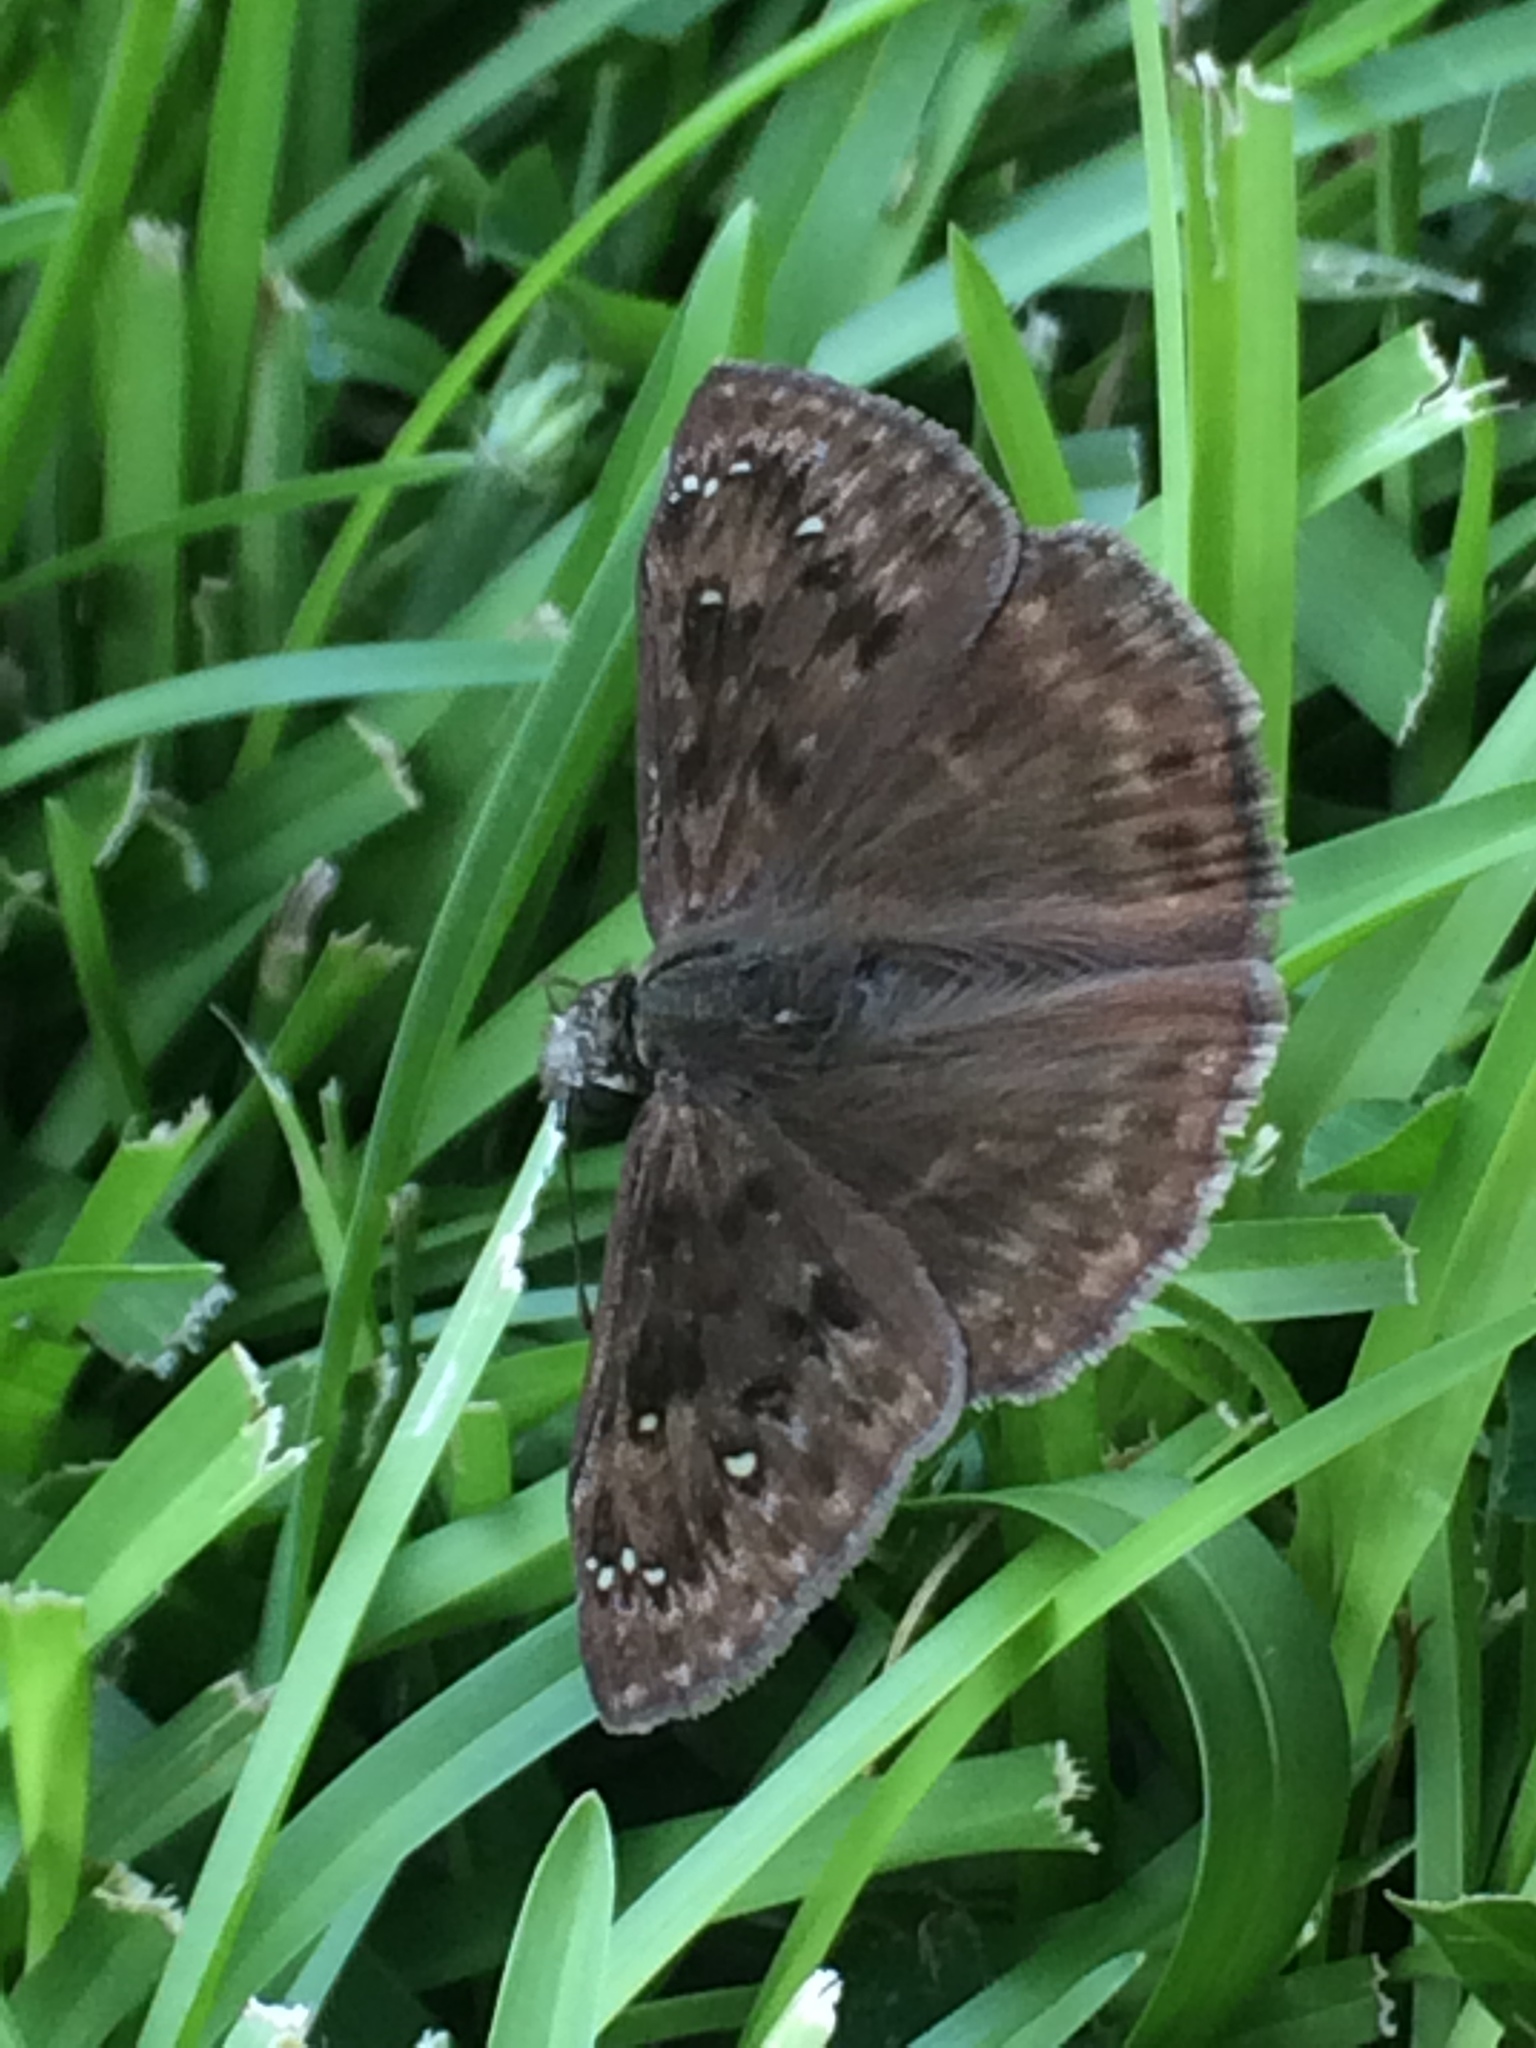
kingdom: Animalia
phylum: Arthropoda
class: Insecta
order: Lepidoptera
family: Hesperiidae
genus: Erynnis
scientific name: Erynnis horatius
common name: Horace's duskywing
